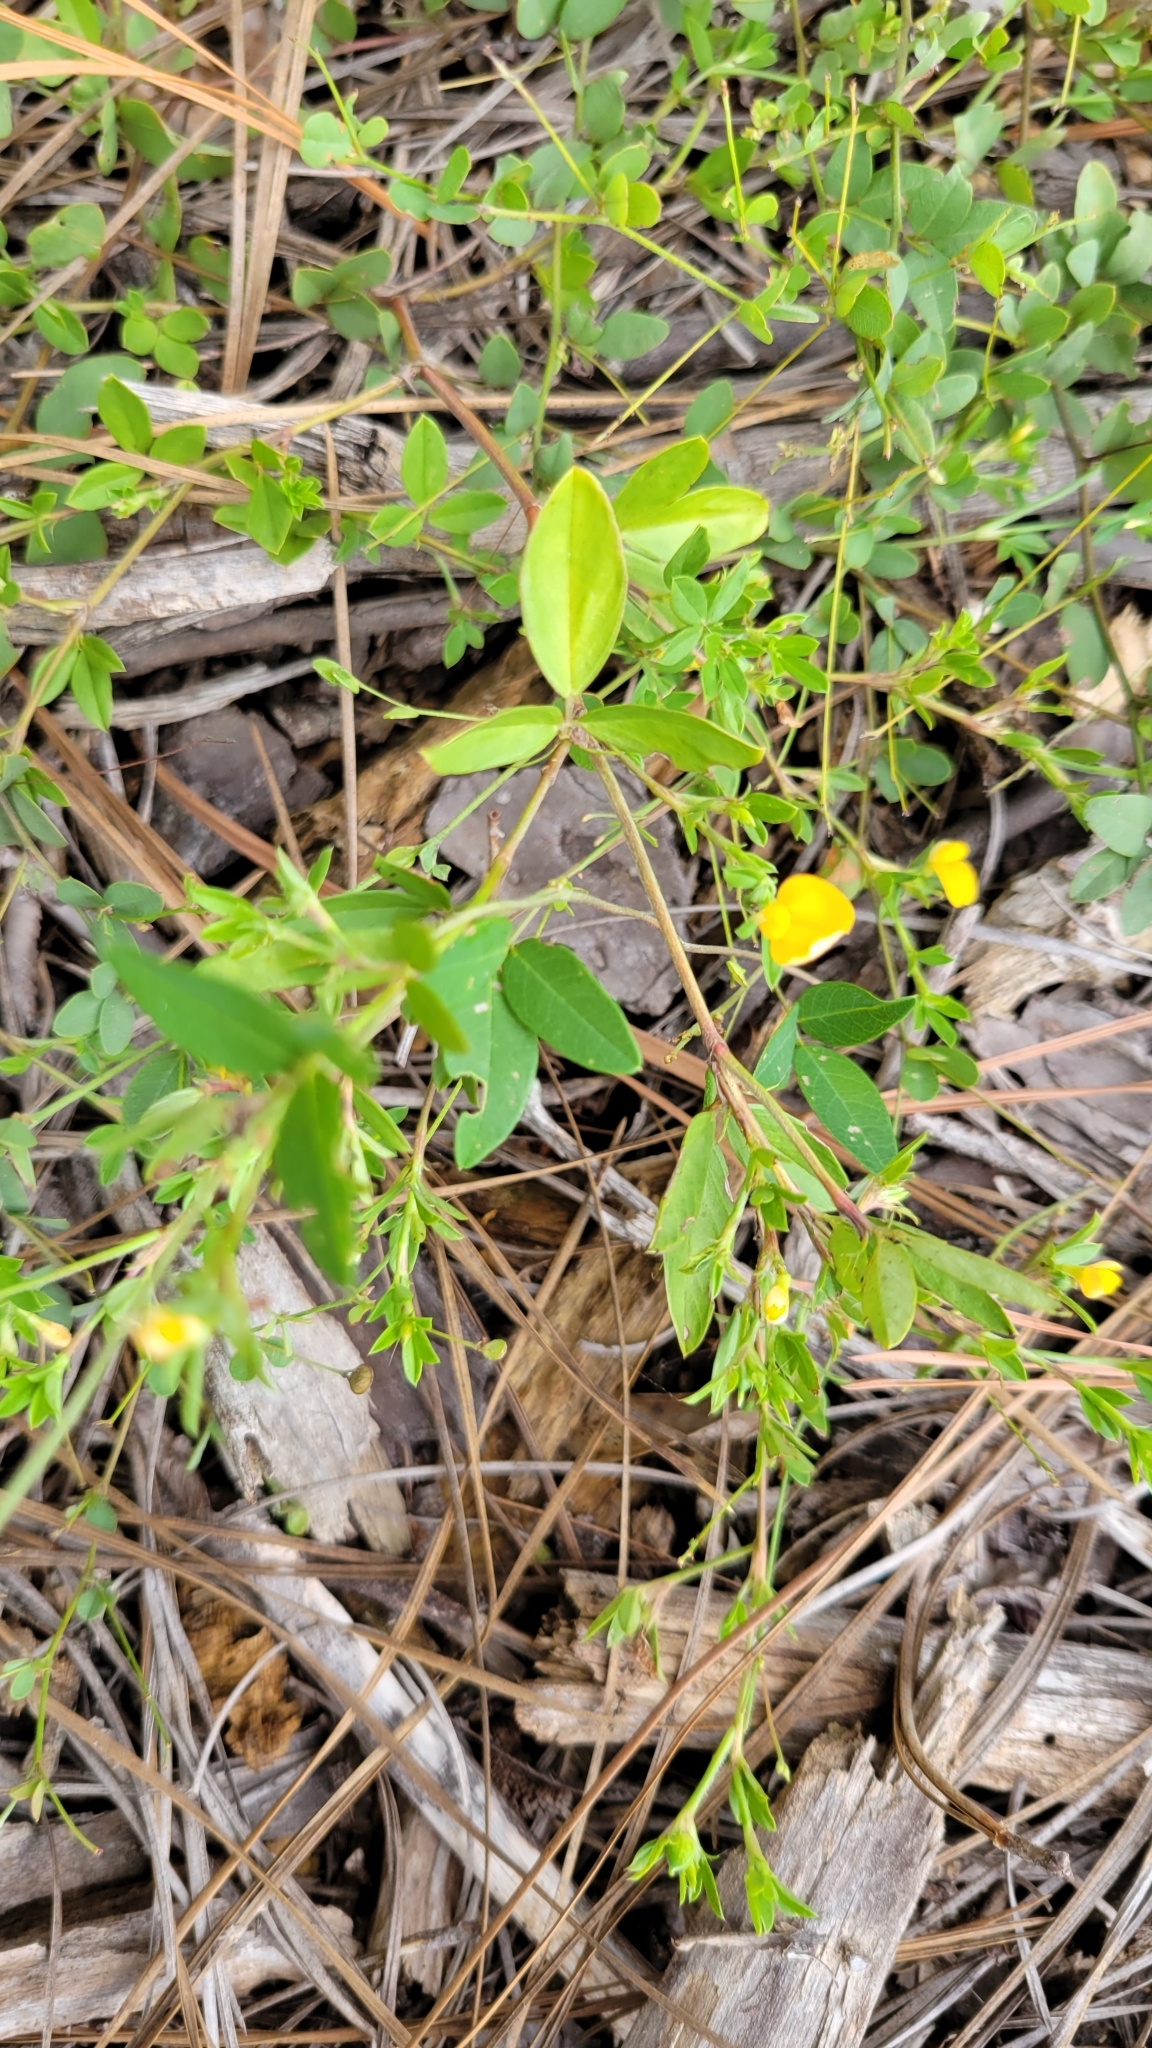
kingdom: Plantae
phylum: Tracheophyta
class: Magnoliopsida
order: Fabales
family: Fabaceae
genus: Stylosanthes
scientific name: Stylosanthes biflora
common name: Two-flower pencil-flower
